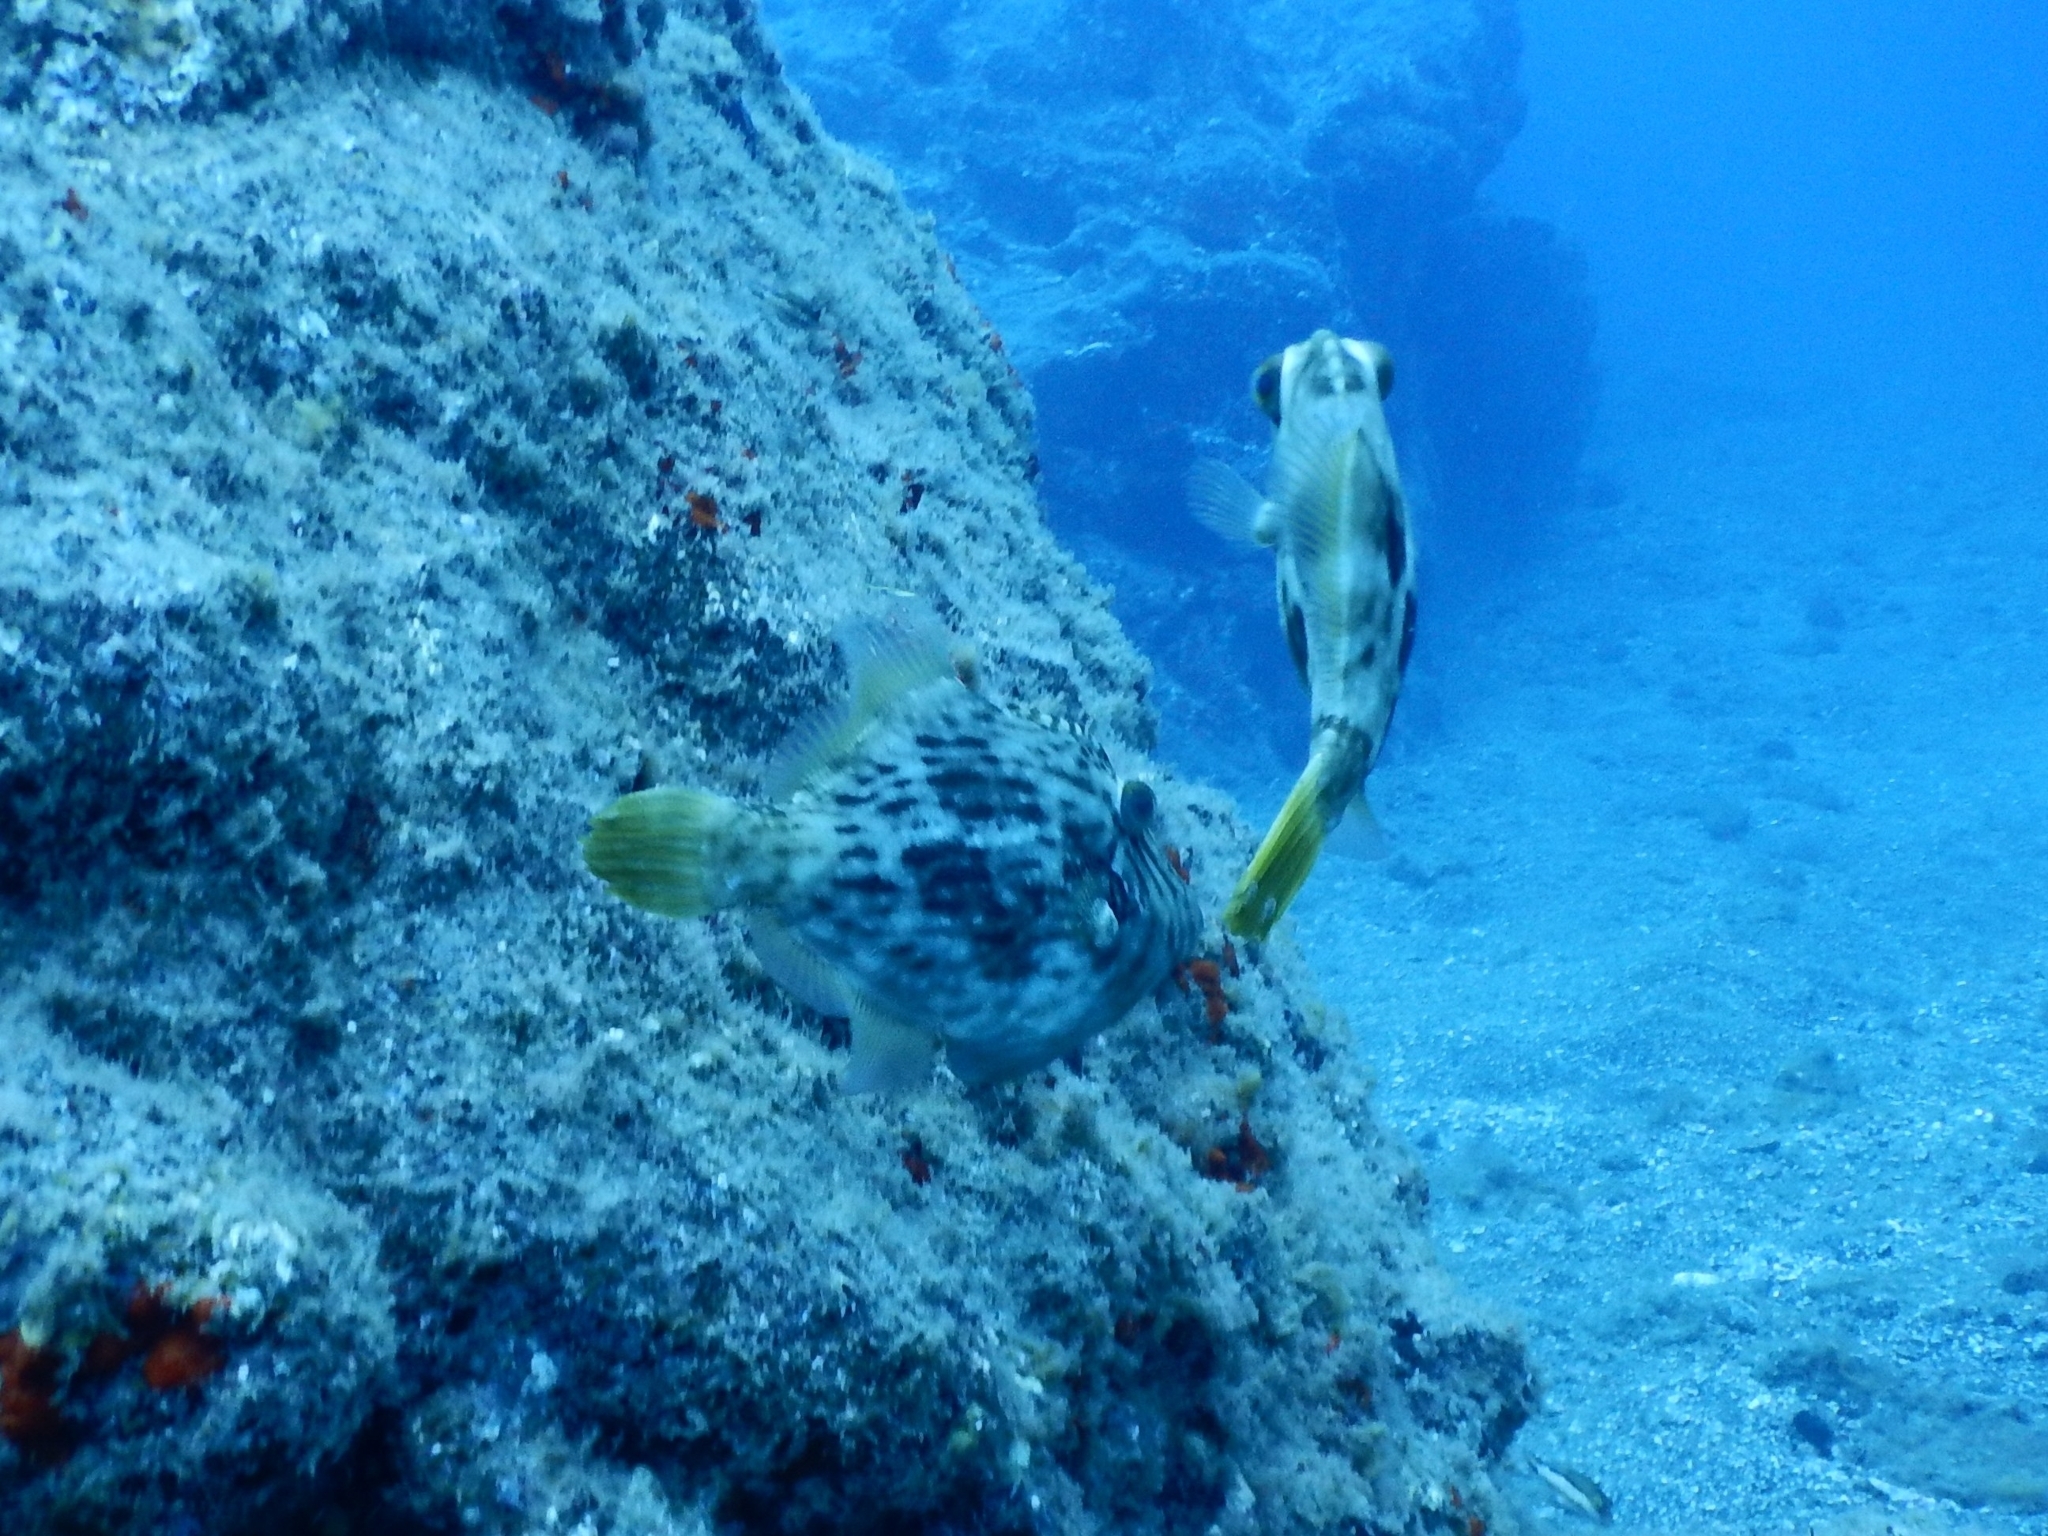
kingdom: Animalia
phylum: Chordata
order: Tetraodontiformes
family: Monacanthidae
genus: Stephanolepis
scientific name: Stephanolepis hispidus
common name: Planehead filefish
